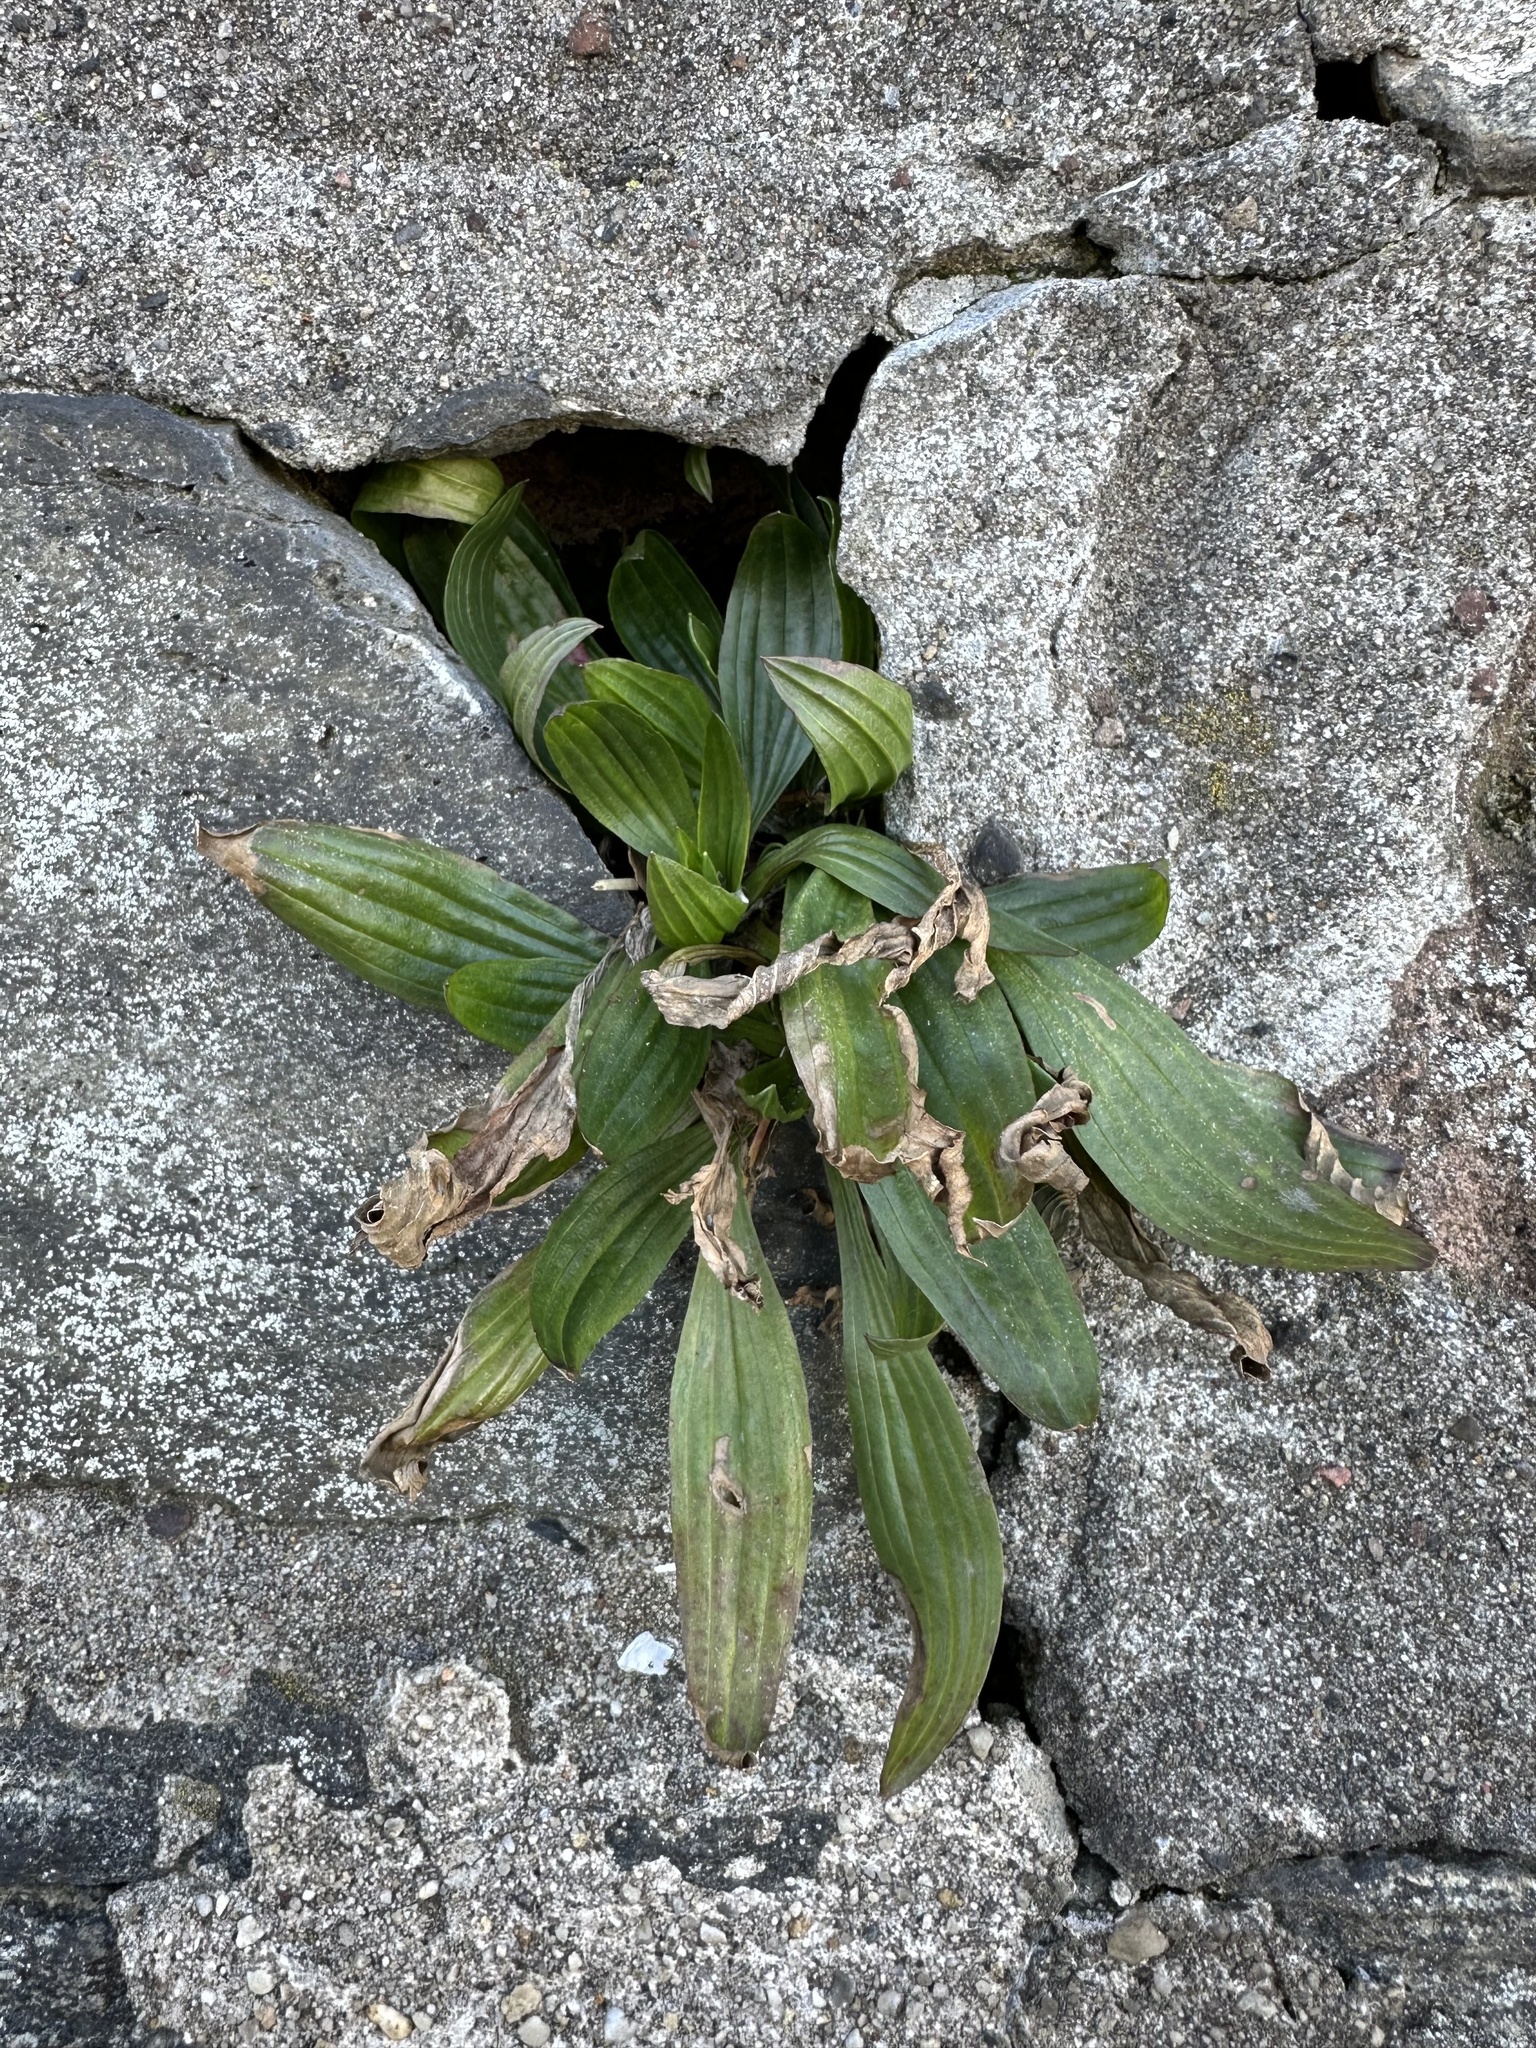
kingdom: Plantae
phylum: Tracheophyta
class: Magnoliopsida
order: Lamiales
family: Plantaginaceae
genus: Plantago
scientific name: Plantago lanceolata
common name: Ribwort plantain
